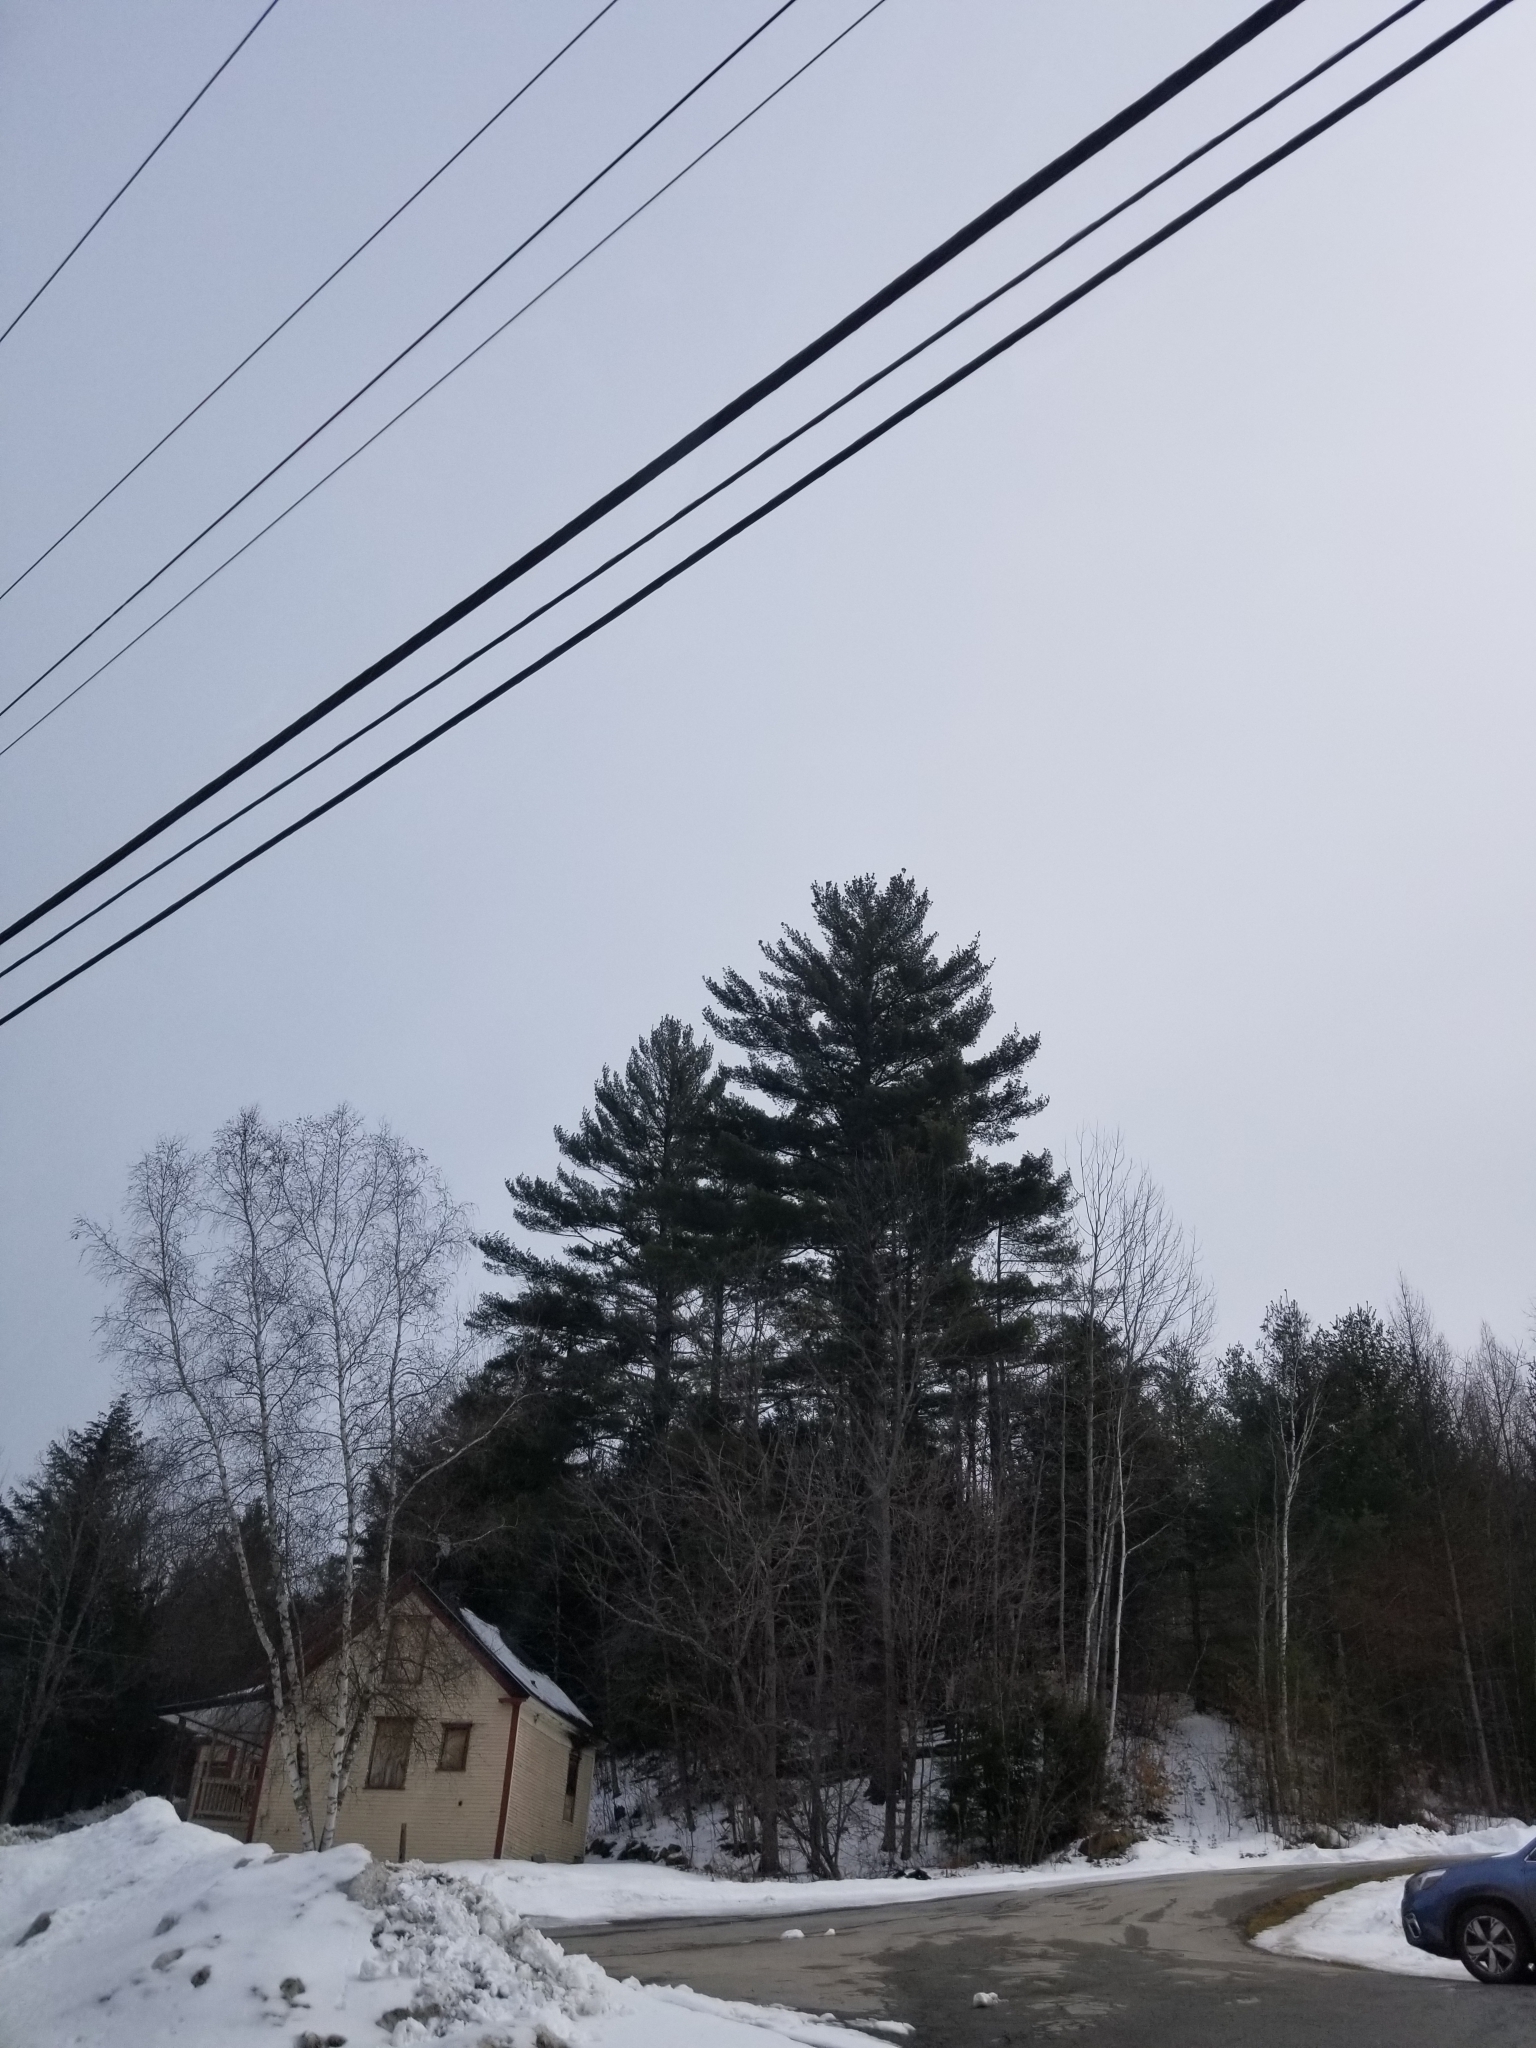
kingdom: Plantae
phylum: Tracheophyta
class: Pinopsida
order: Pinales
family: Pinaceae
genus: Pinus
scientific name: Pinus strobus
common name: Weymouth pine
